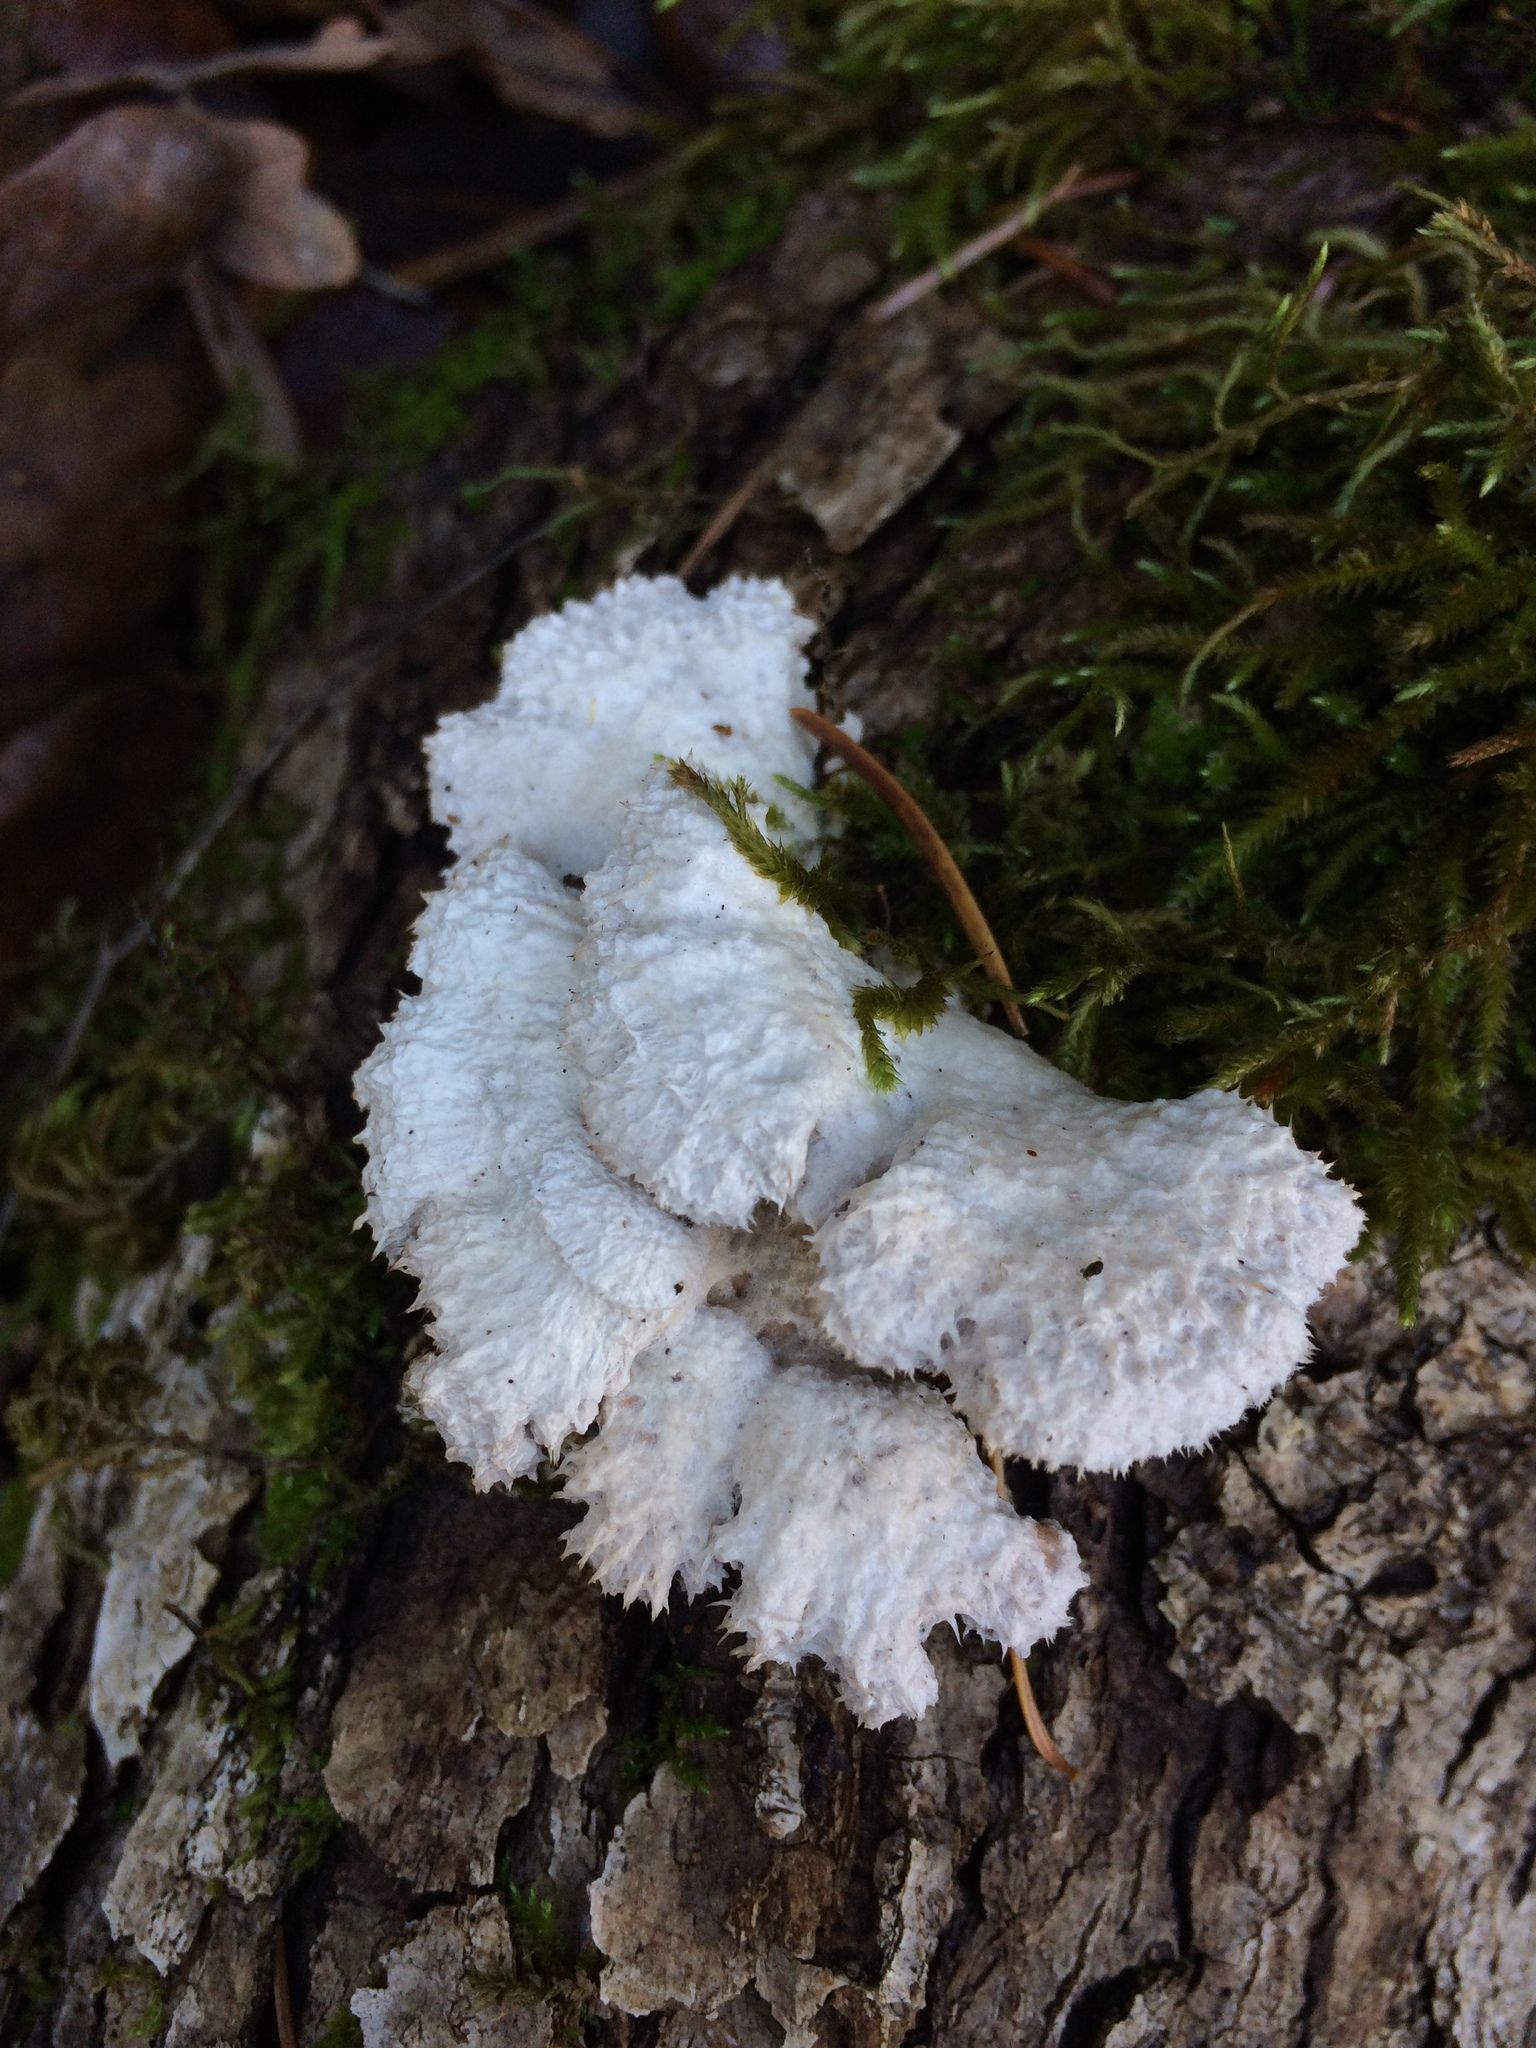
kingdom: Fungi
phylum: Basidiomycota
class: Agaricomycetes
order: Agaricales
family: Schizophyllaceae
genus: Schizophyllum
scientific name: Schizophyllum commune
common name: Common porecrust
